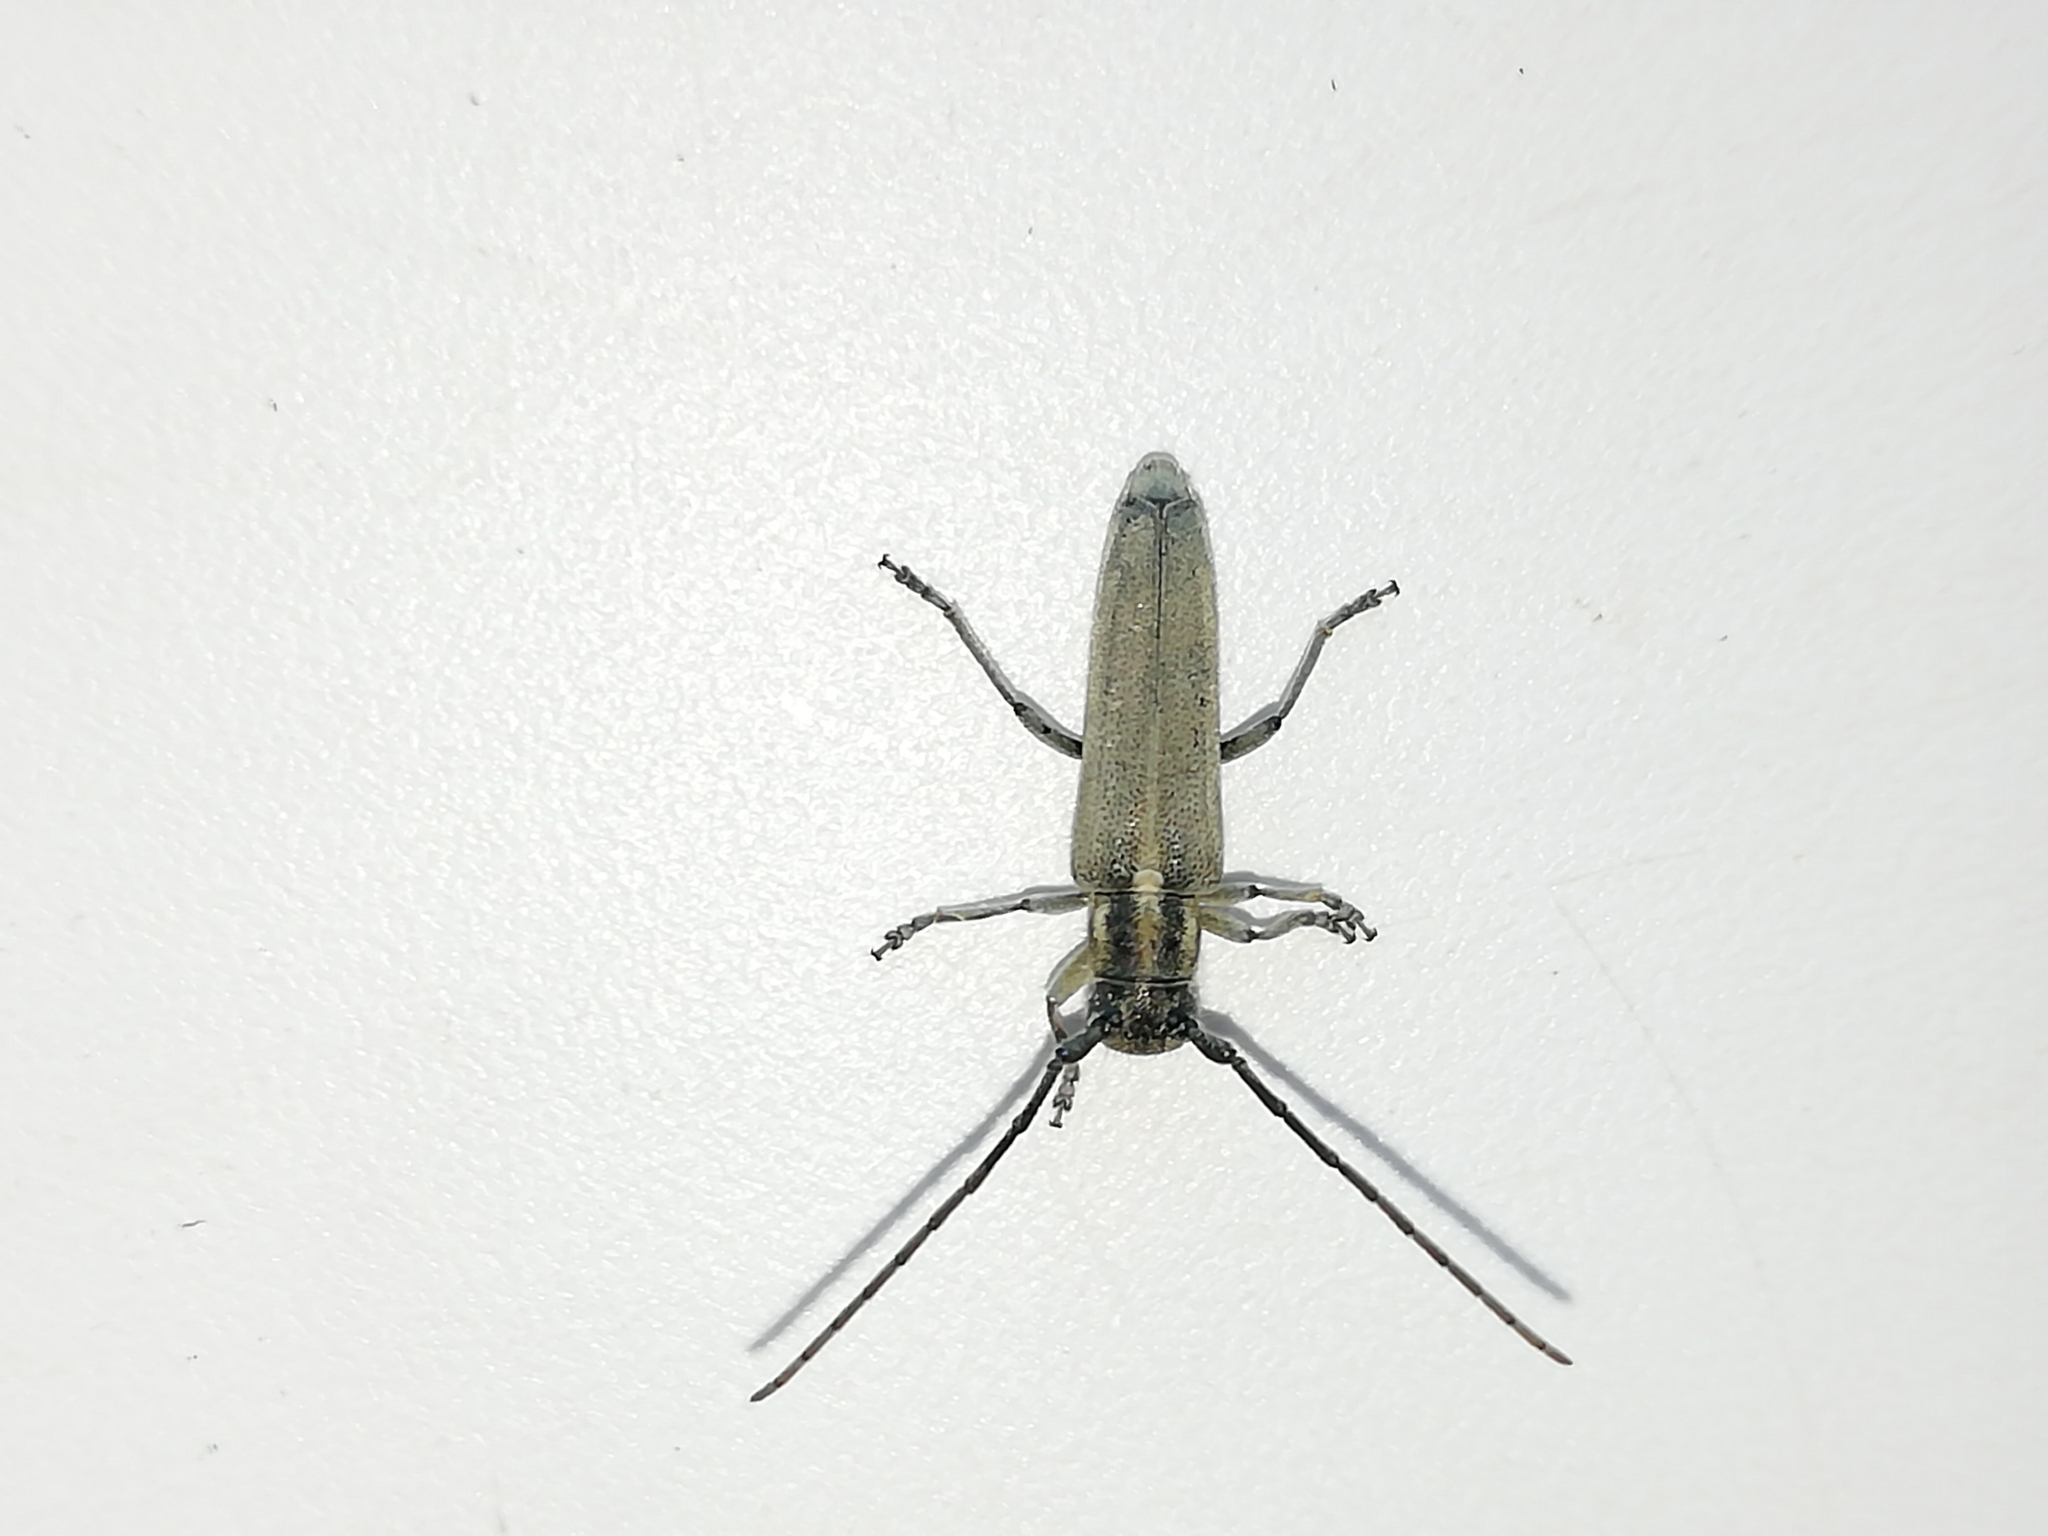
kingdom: Animalia
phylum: Arthropoda
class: Insecta
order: Coleoptera
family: Cerambycidae
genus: Phytoecia
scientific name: Phytoecia nigricornis
